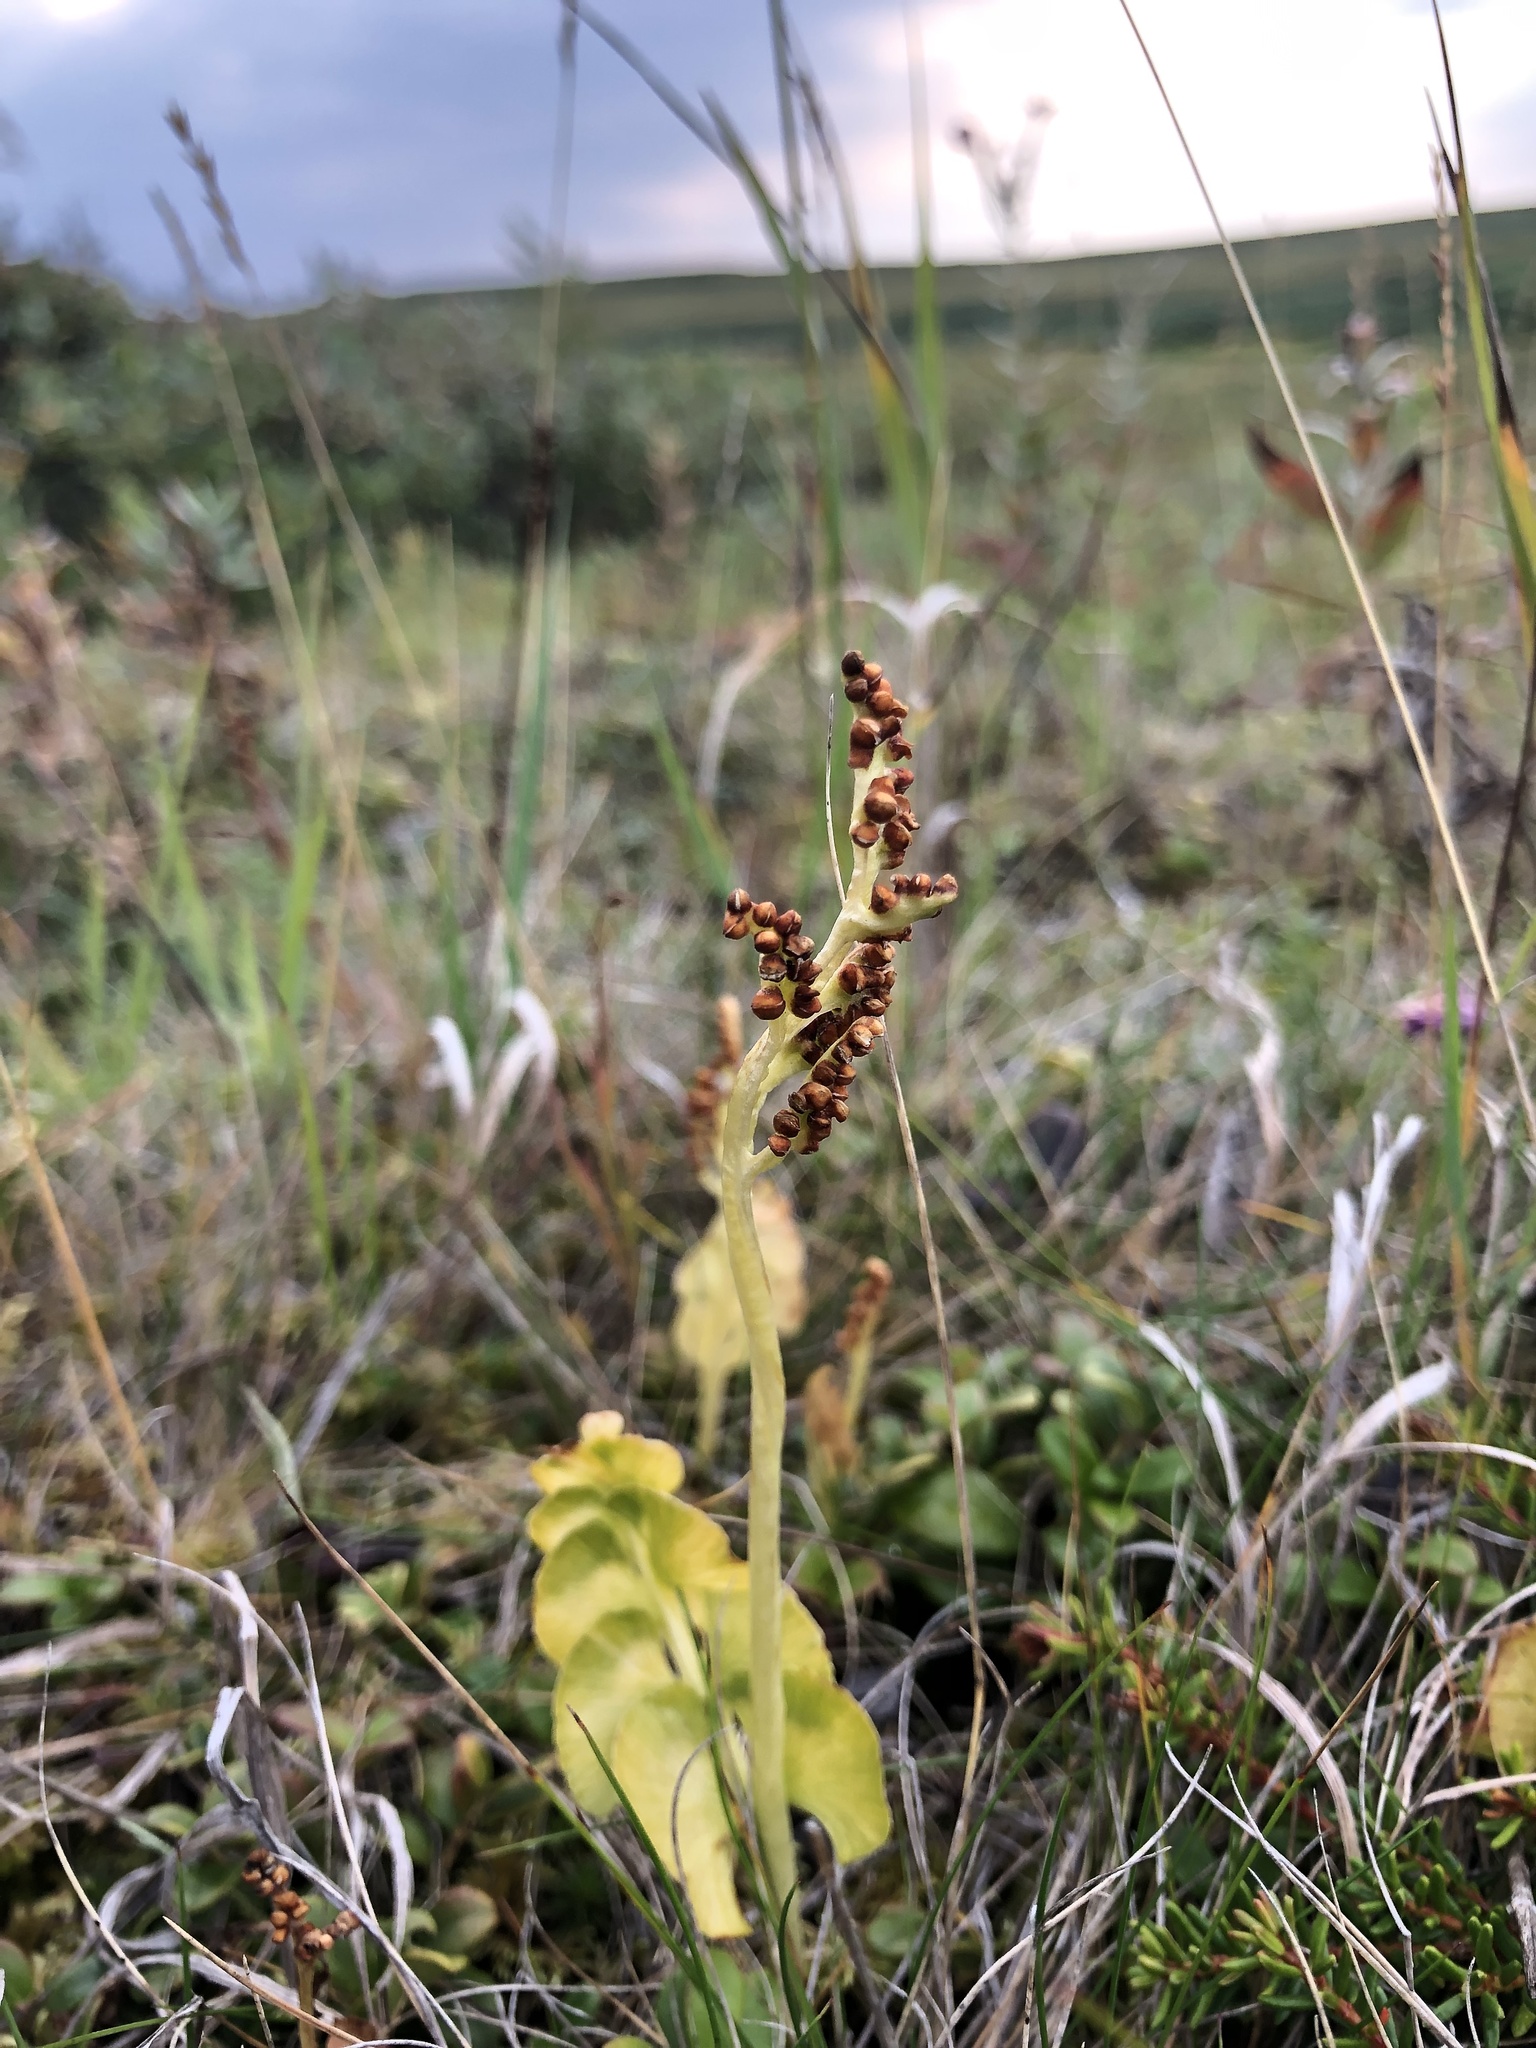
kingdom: Plantae
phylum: Tracheophyta
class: Polypodiopsida
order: Ophioglossales
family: Ophioglossaceae
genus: Botrychium
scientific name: Botrychium lunaria
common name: Moonwort
